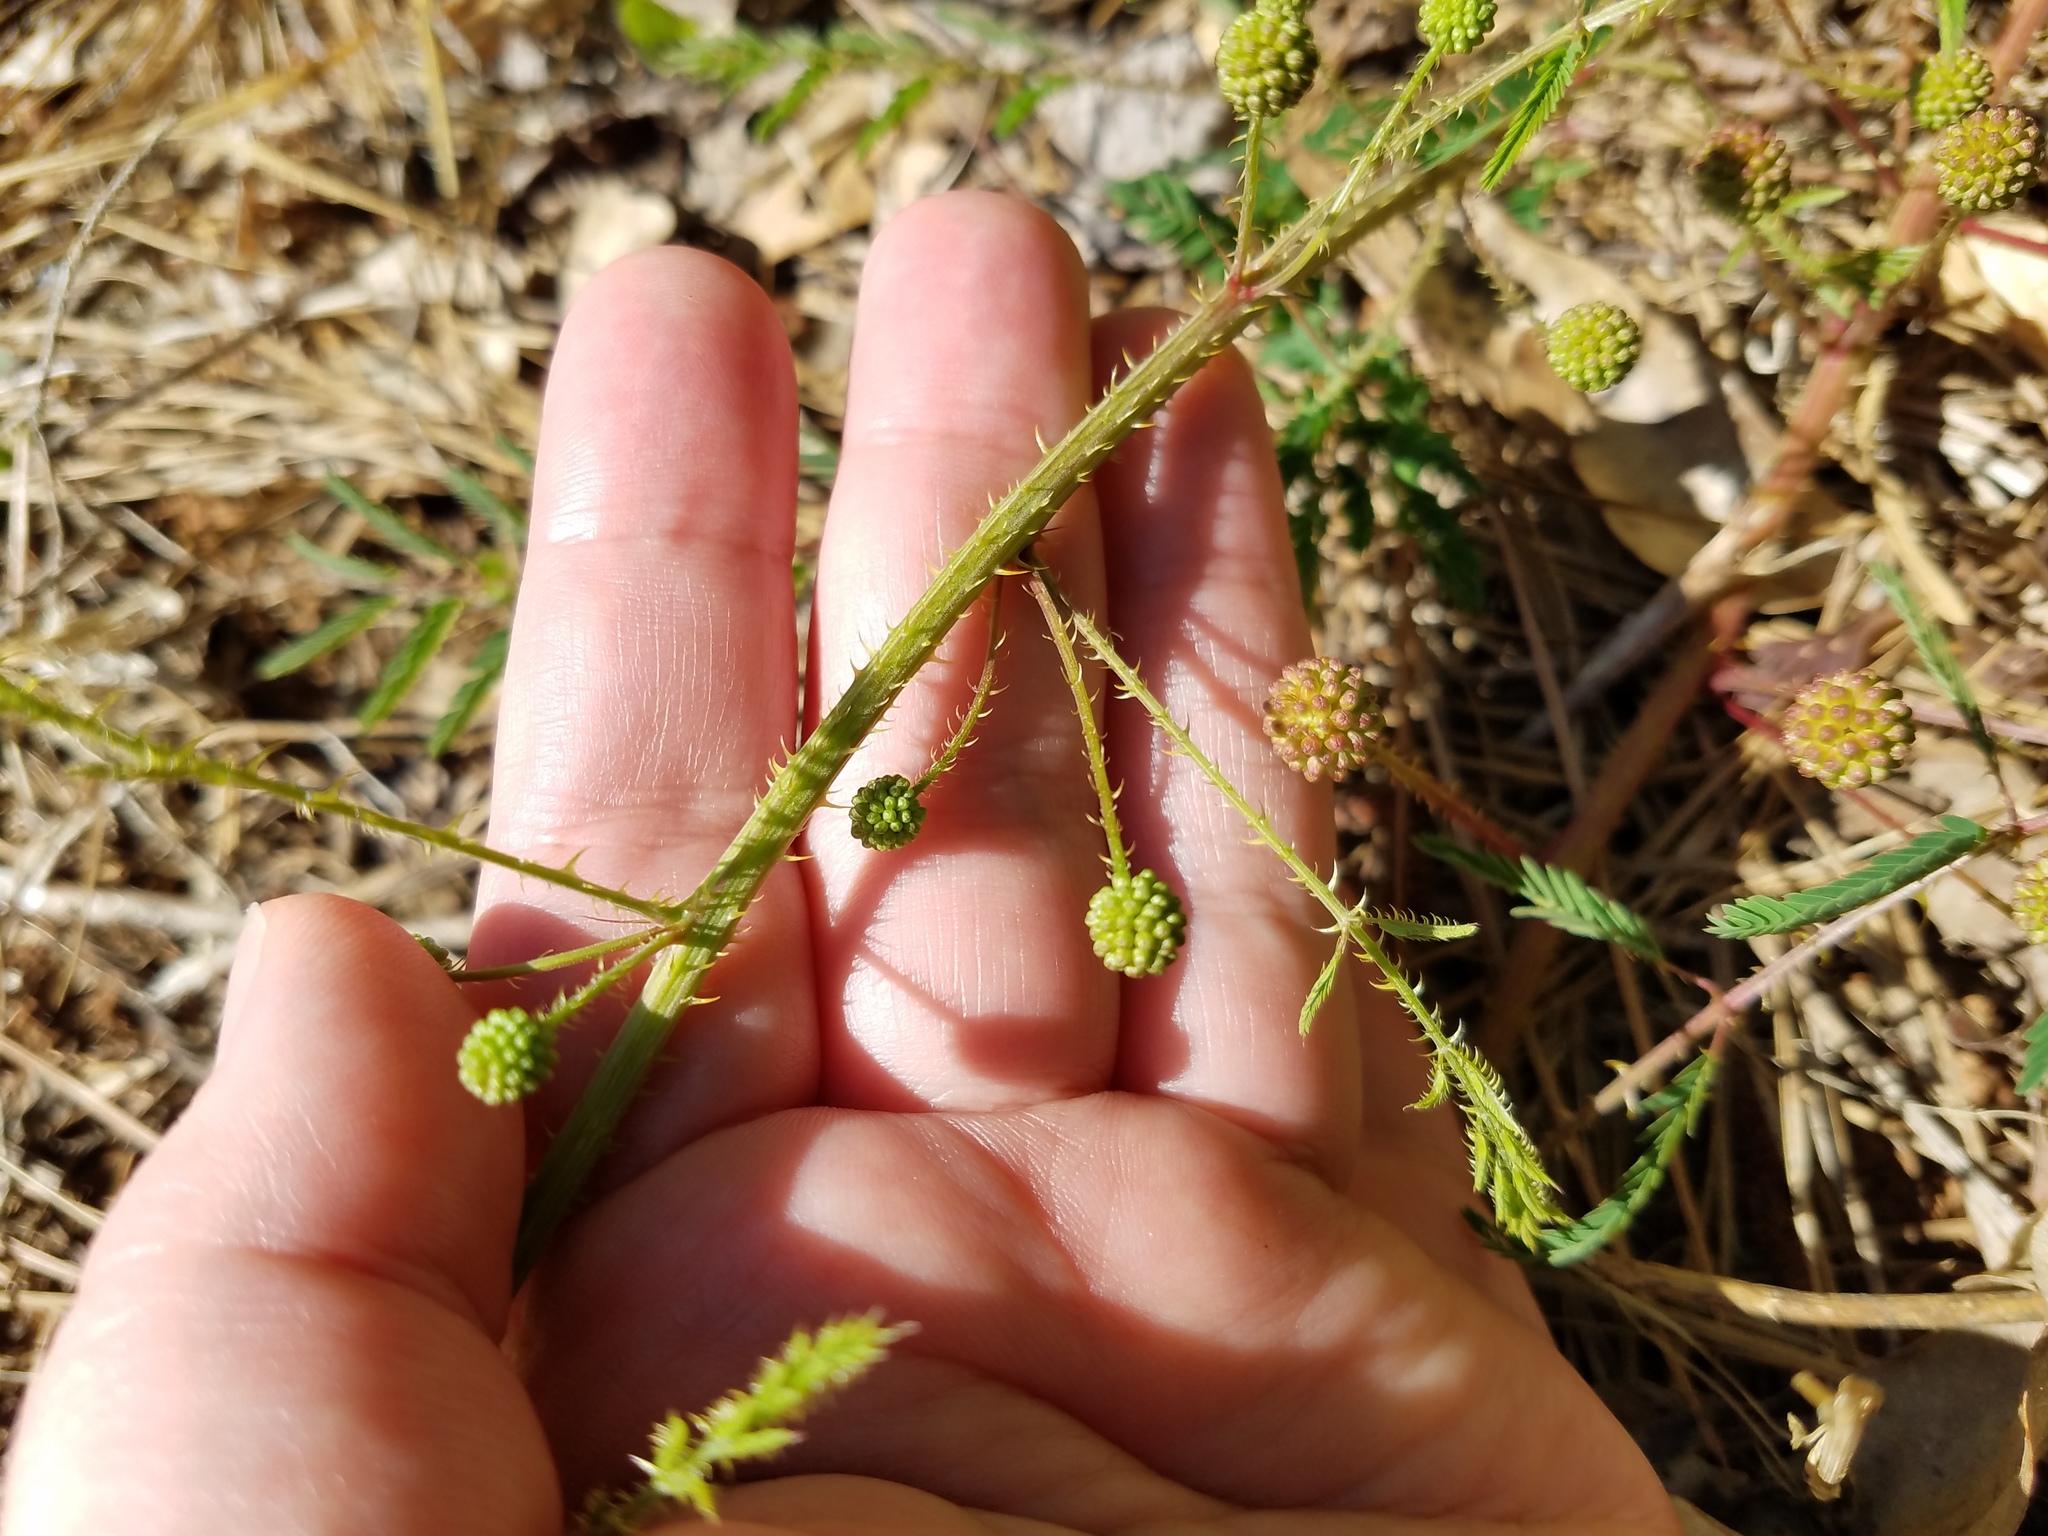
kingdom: Plantae
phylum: Tracheophyta
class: Magnoliopsida
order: Fabales
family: Fabaceae
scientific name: Fabaceae
